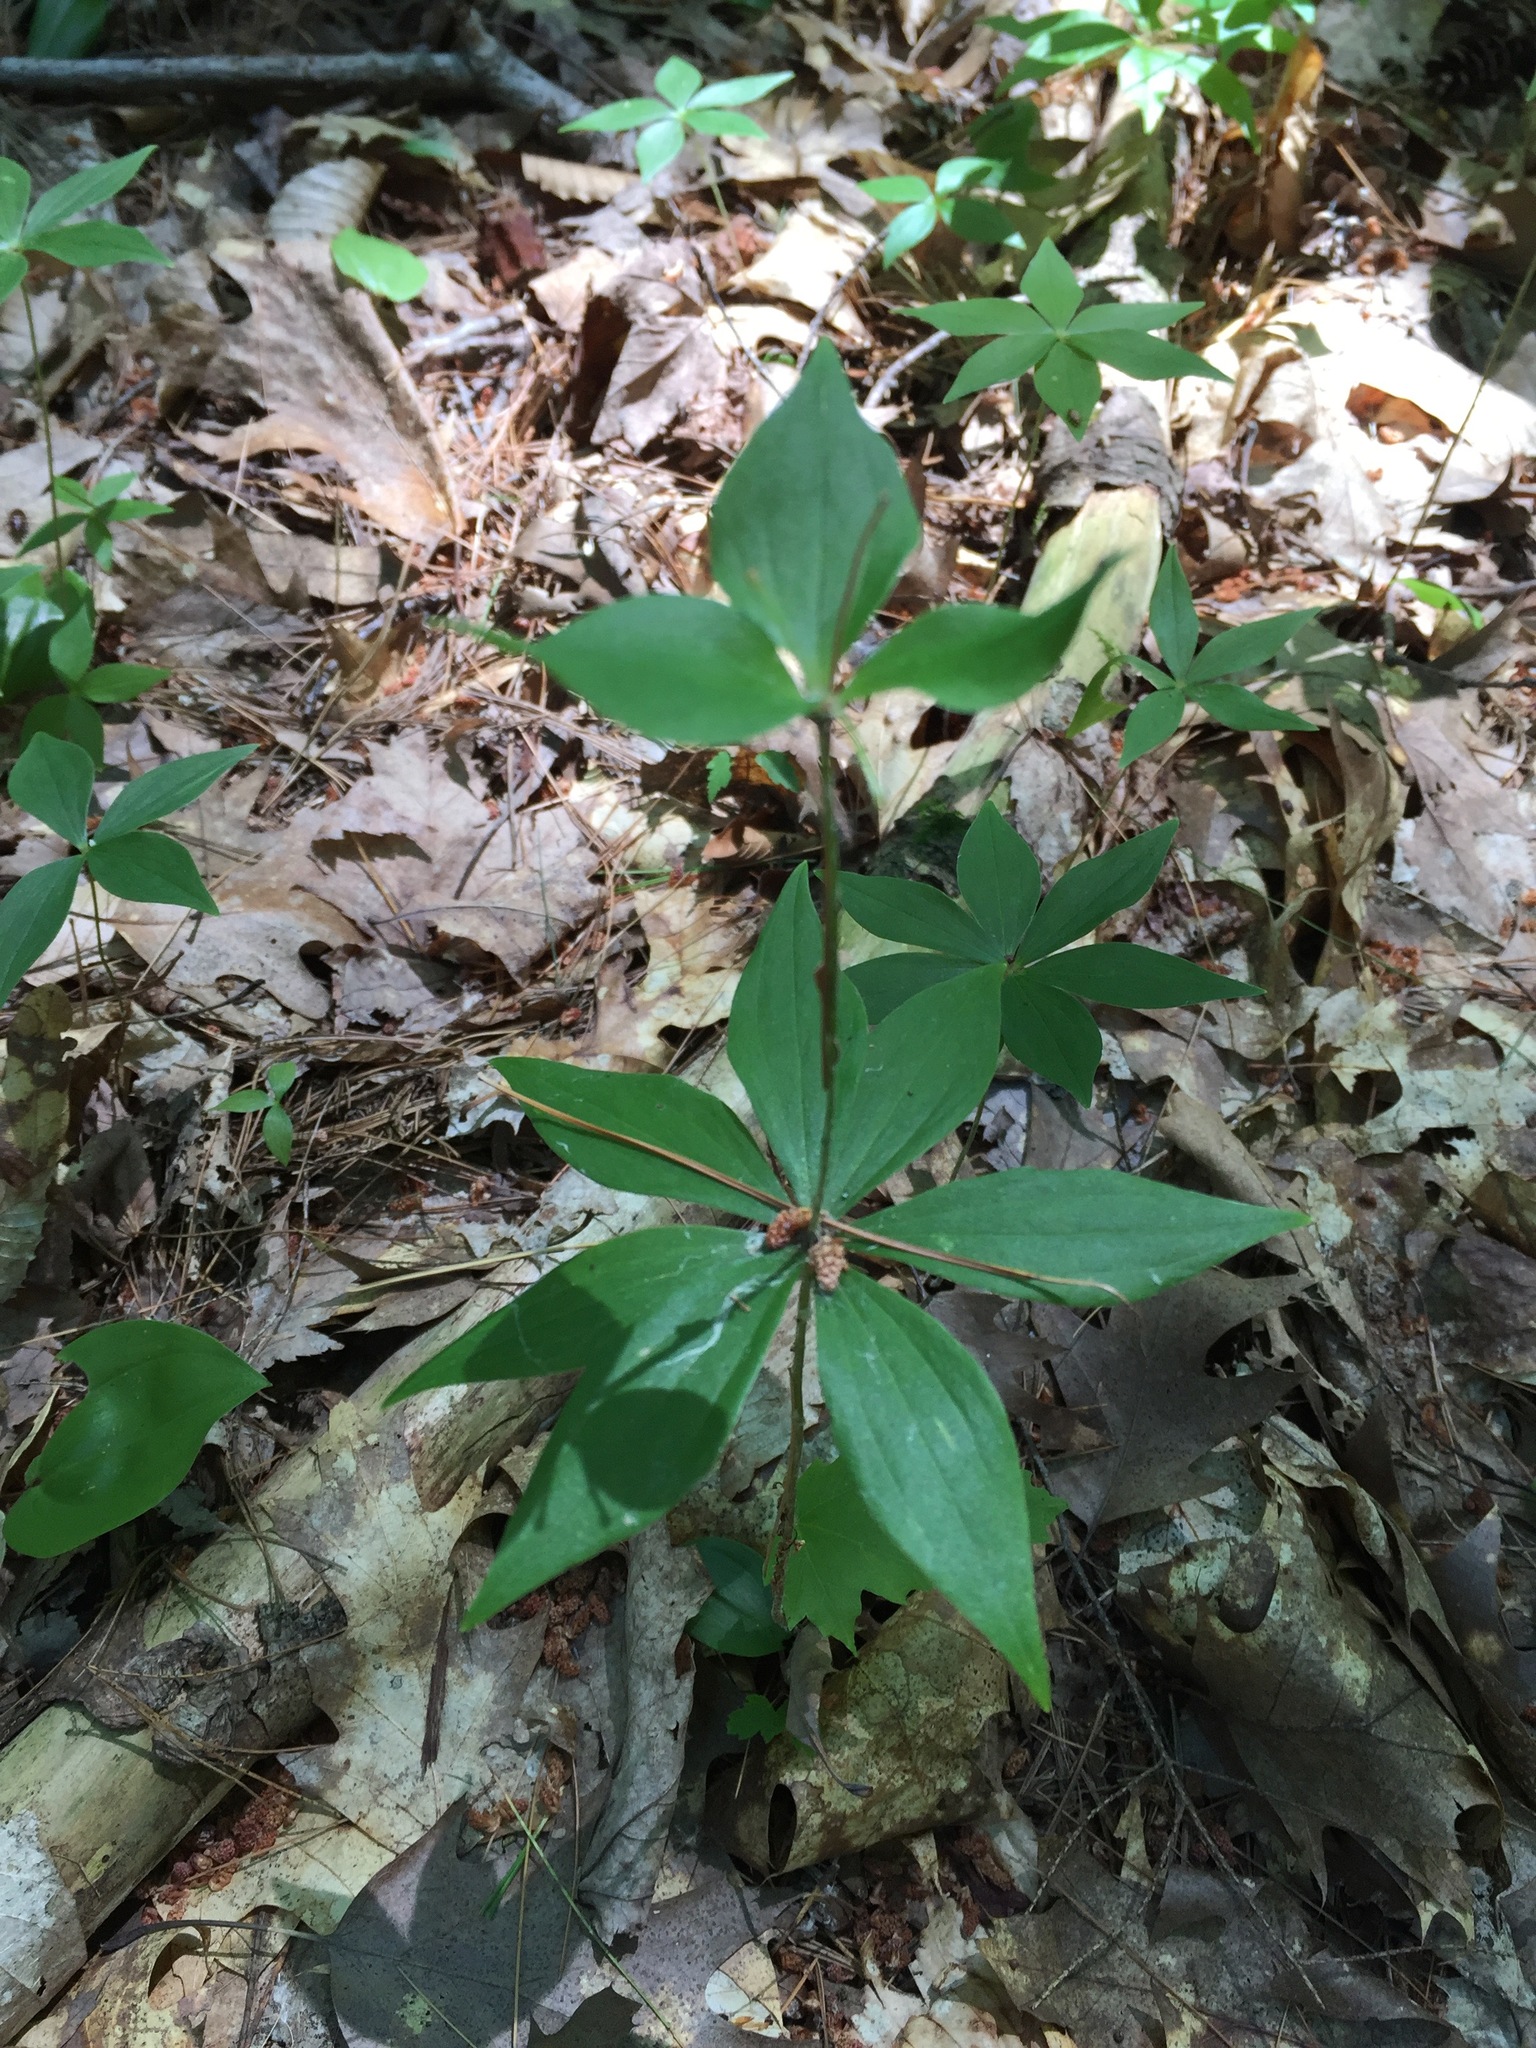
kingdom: Plantae
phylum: Tracheophyta
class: Liliopsida
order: Liliales
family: Liliaceae
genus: Medeola
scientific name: Medeola virginiana
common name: Indian cucumber-root
